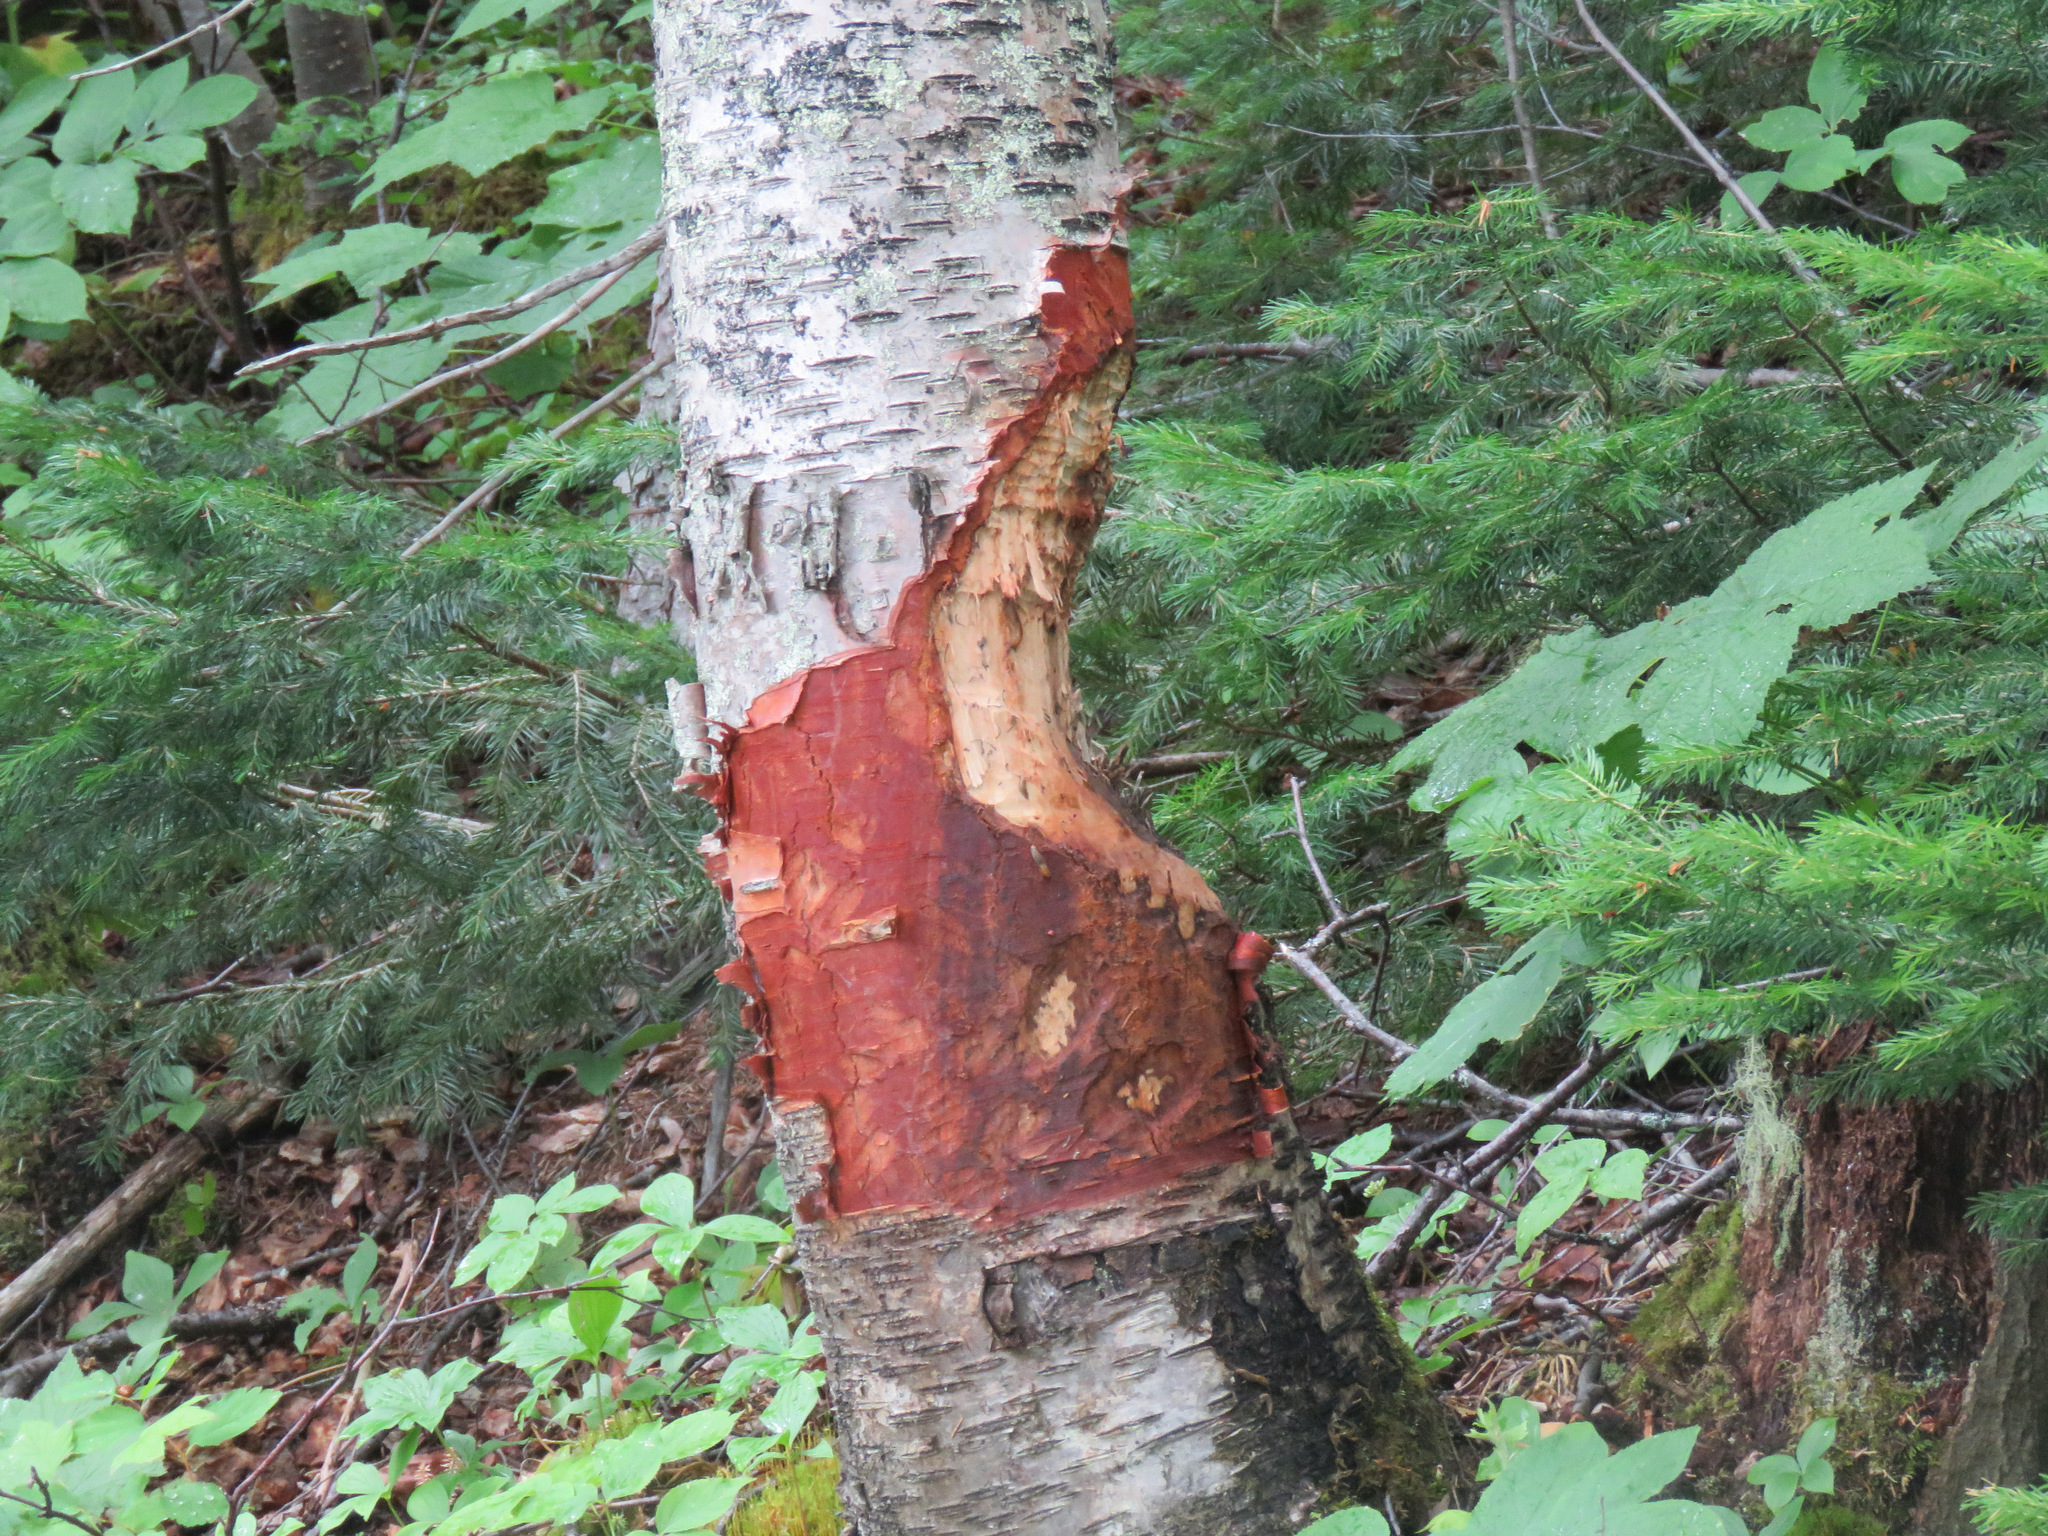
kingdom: Animalia
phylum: Chordata
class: Mammalia
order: Rodentia
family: Castoridae
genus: Castor
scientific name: Castor canadensis
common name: American beaver
